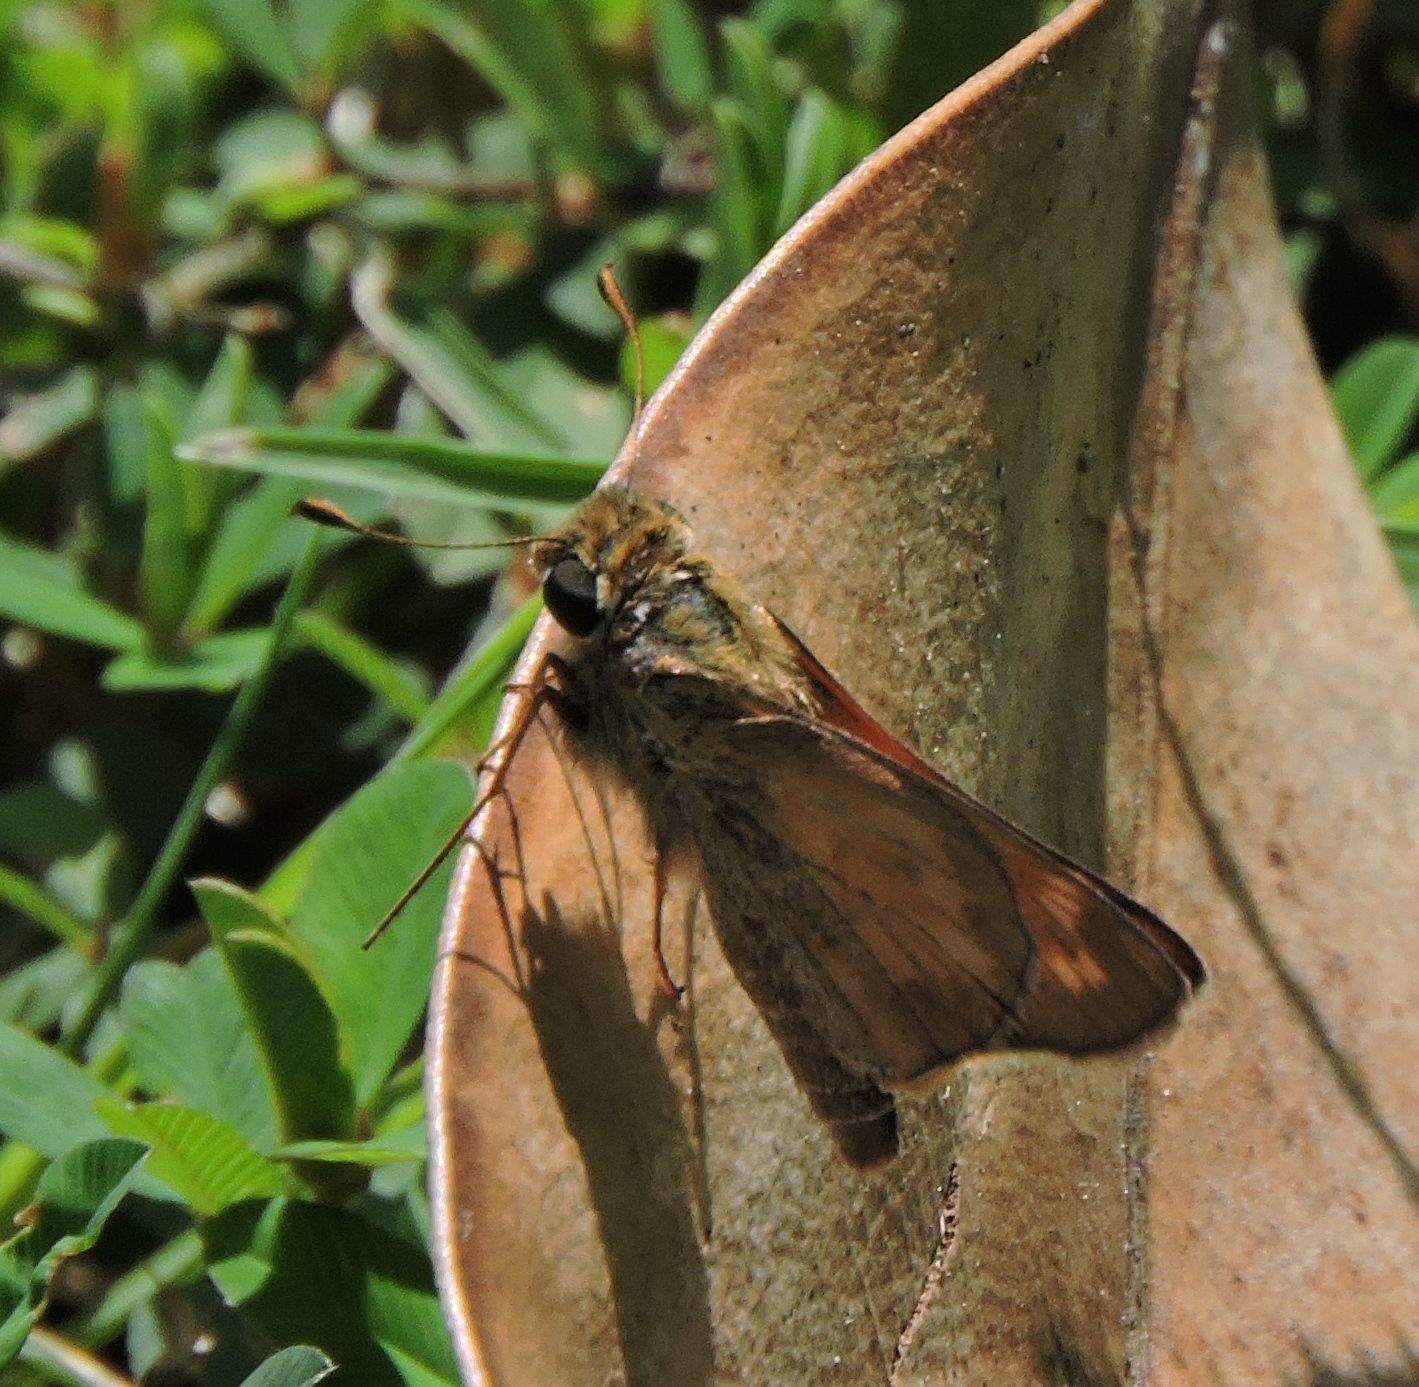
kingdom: Animalia
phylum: Arthropoda
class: Insecta
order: Lepidoptera
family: Hesperiidae
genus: Atalopedes
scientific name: Atalopedes
